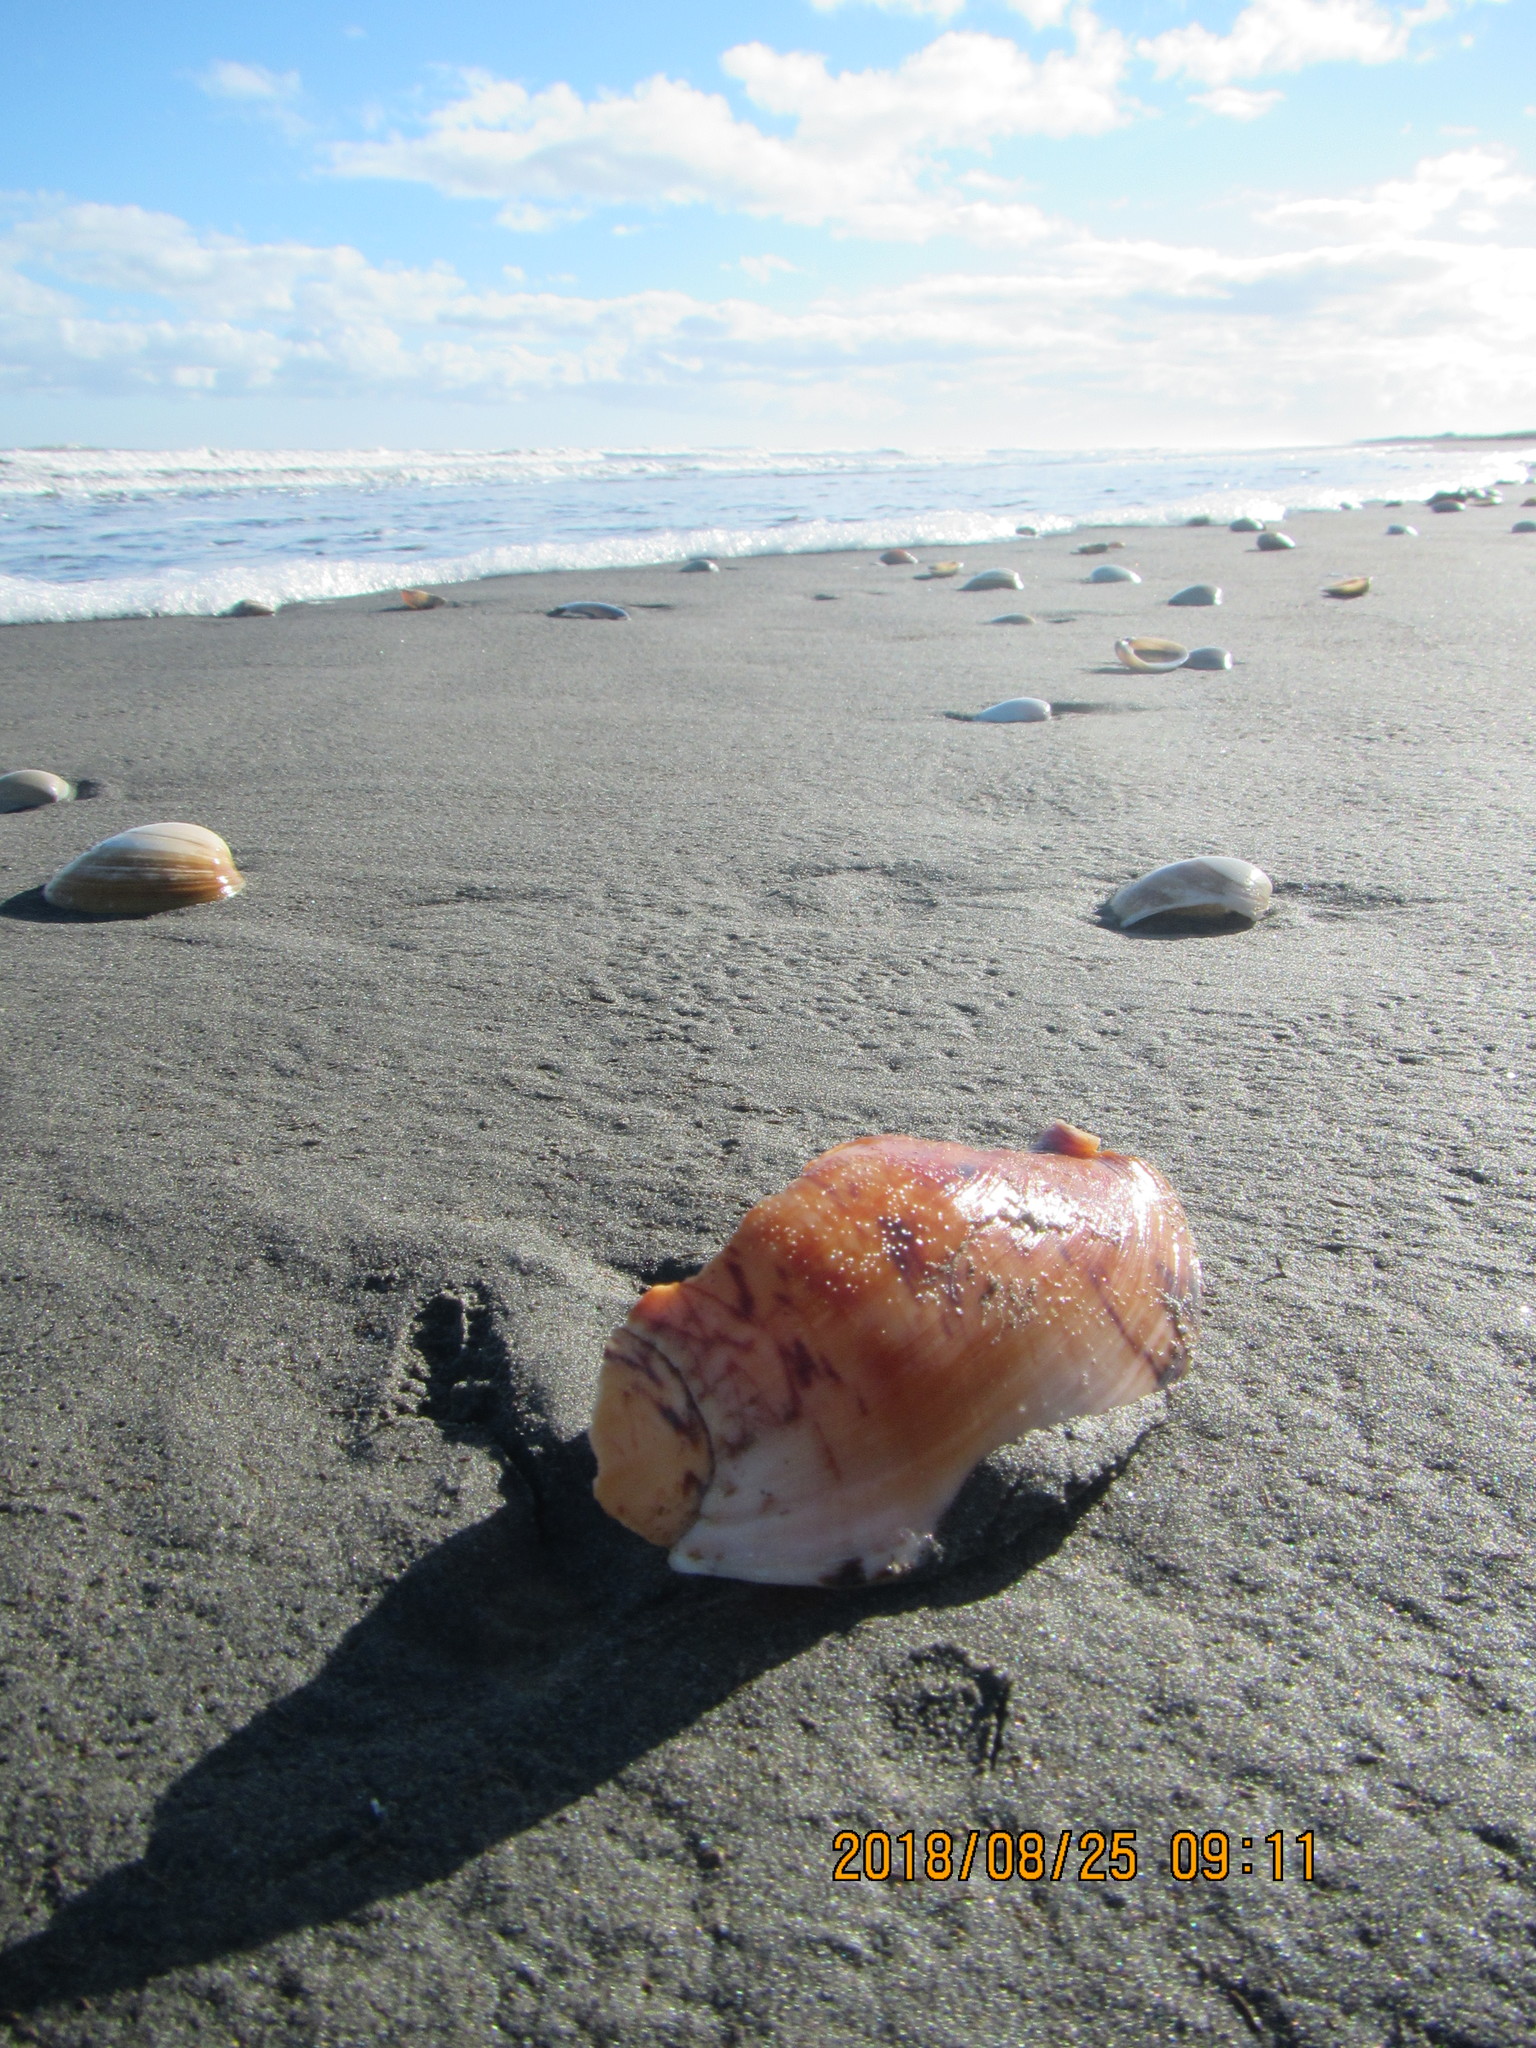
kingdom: Animalia
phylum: Mollusca
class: Gastropoda
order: Neogastropoda
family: Volutidae
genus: Alcithoe
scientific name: Alcithoe arabica
